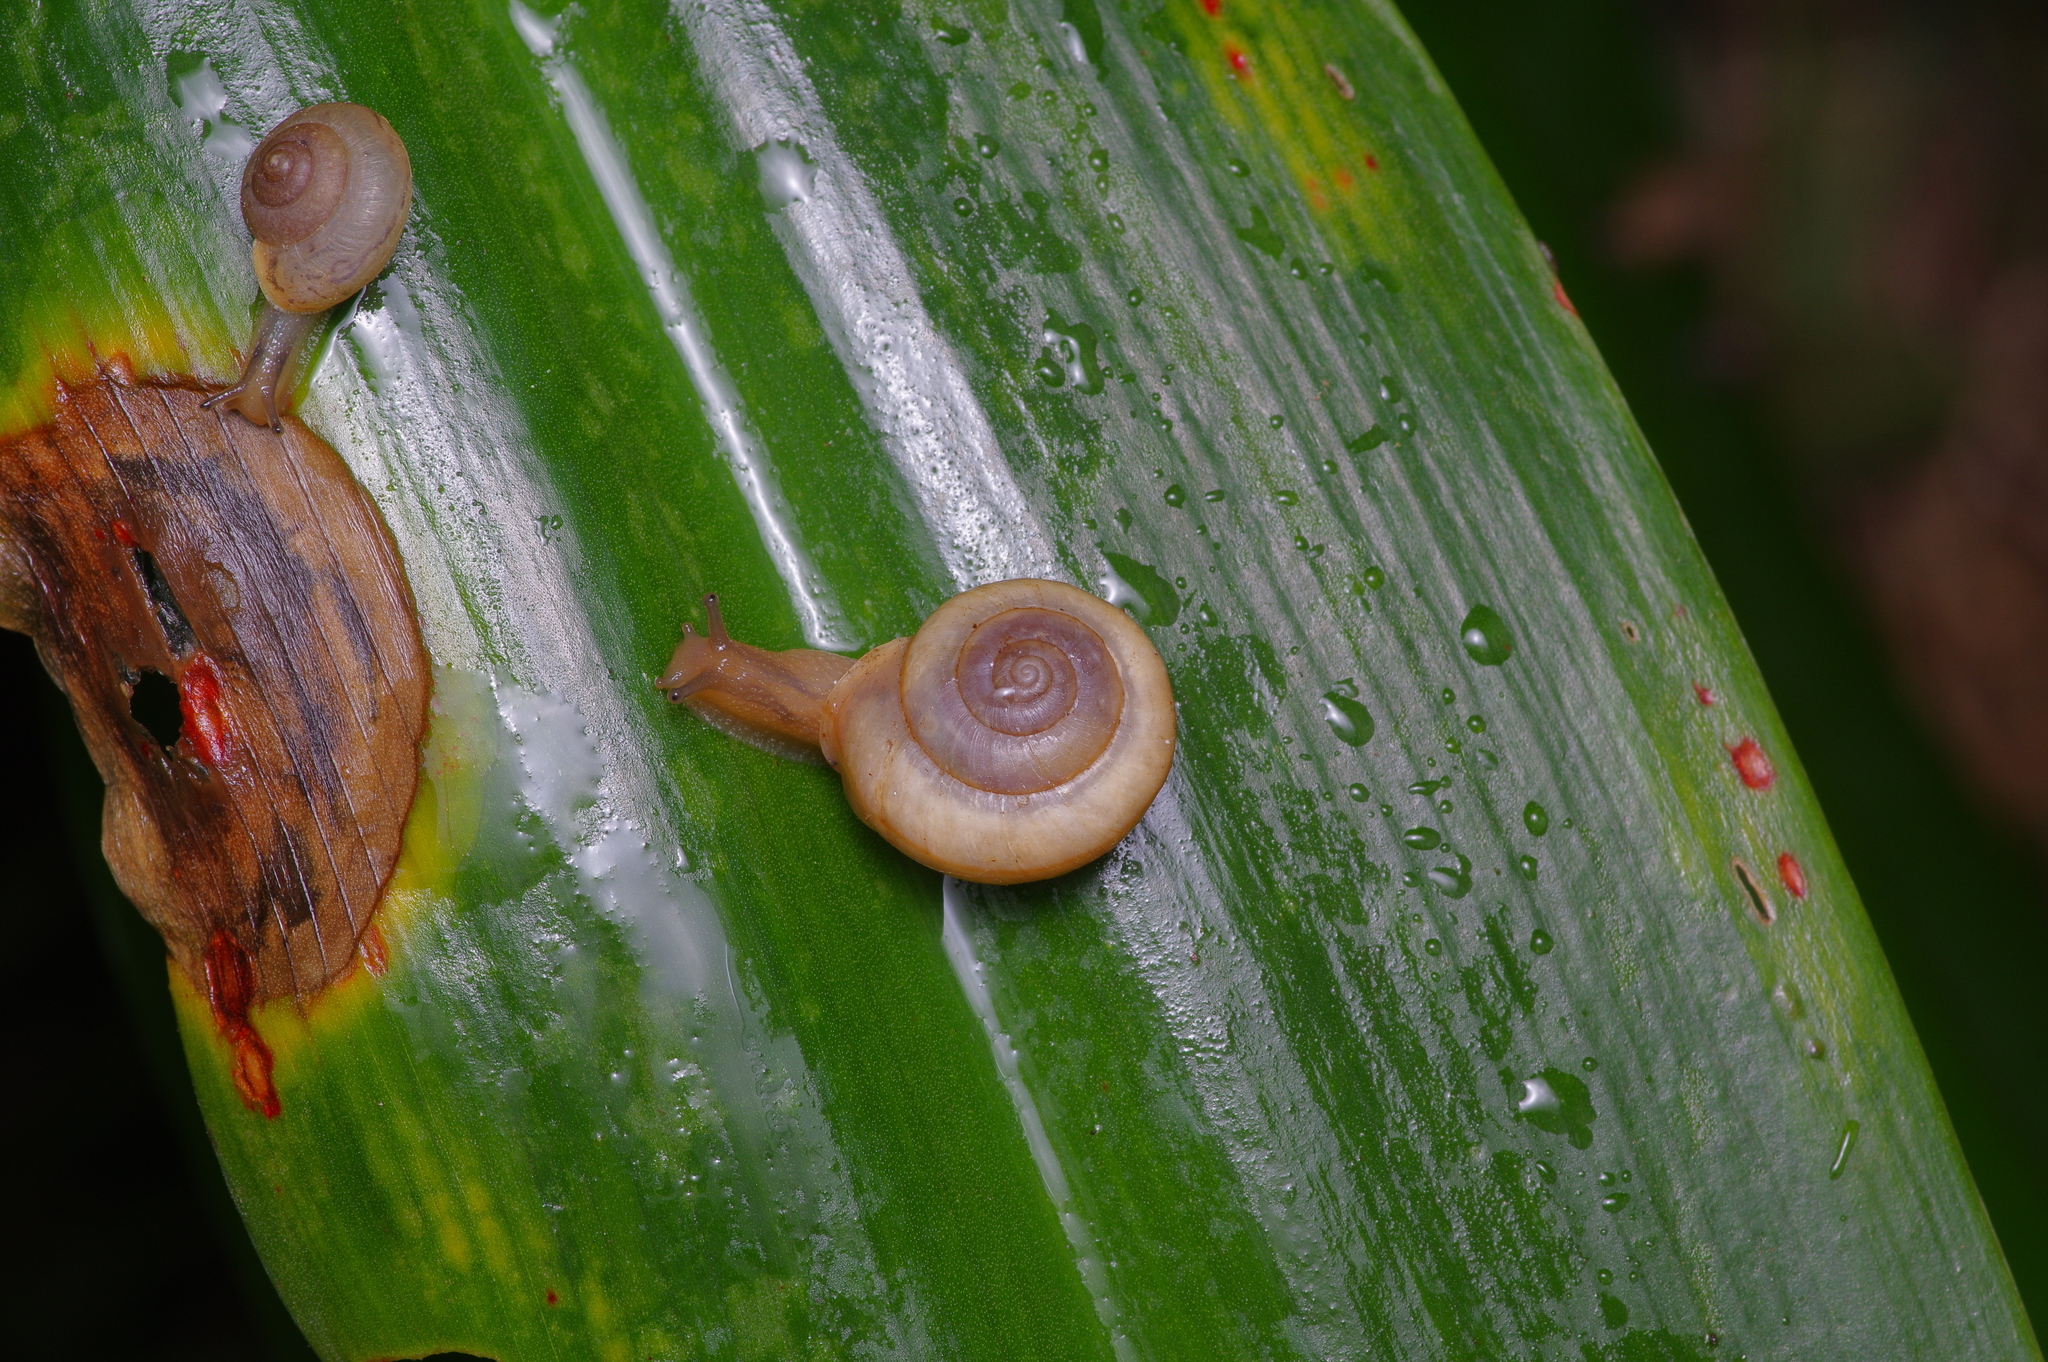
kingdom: Animalia
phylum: Mollusca
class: Gastropoda
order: Stylommatophora
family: Camaenidae
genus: Bradybaena
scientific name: Bradybaena similaris
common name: Asian trampsnail
